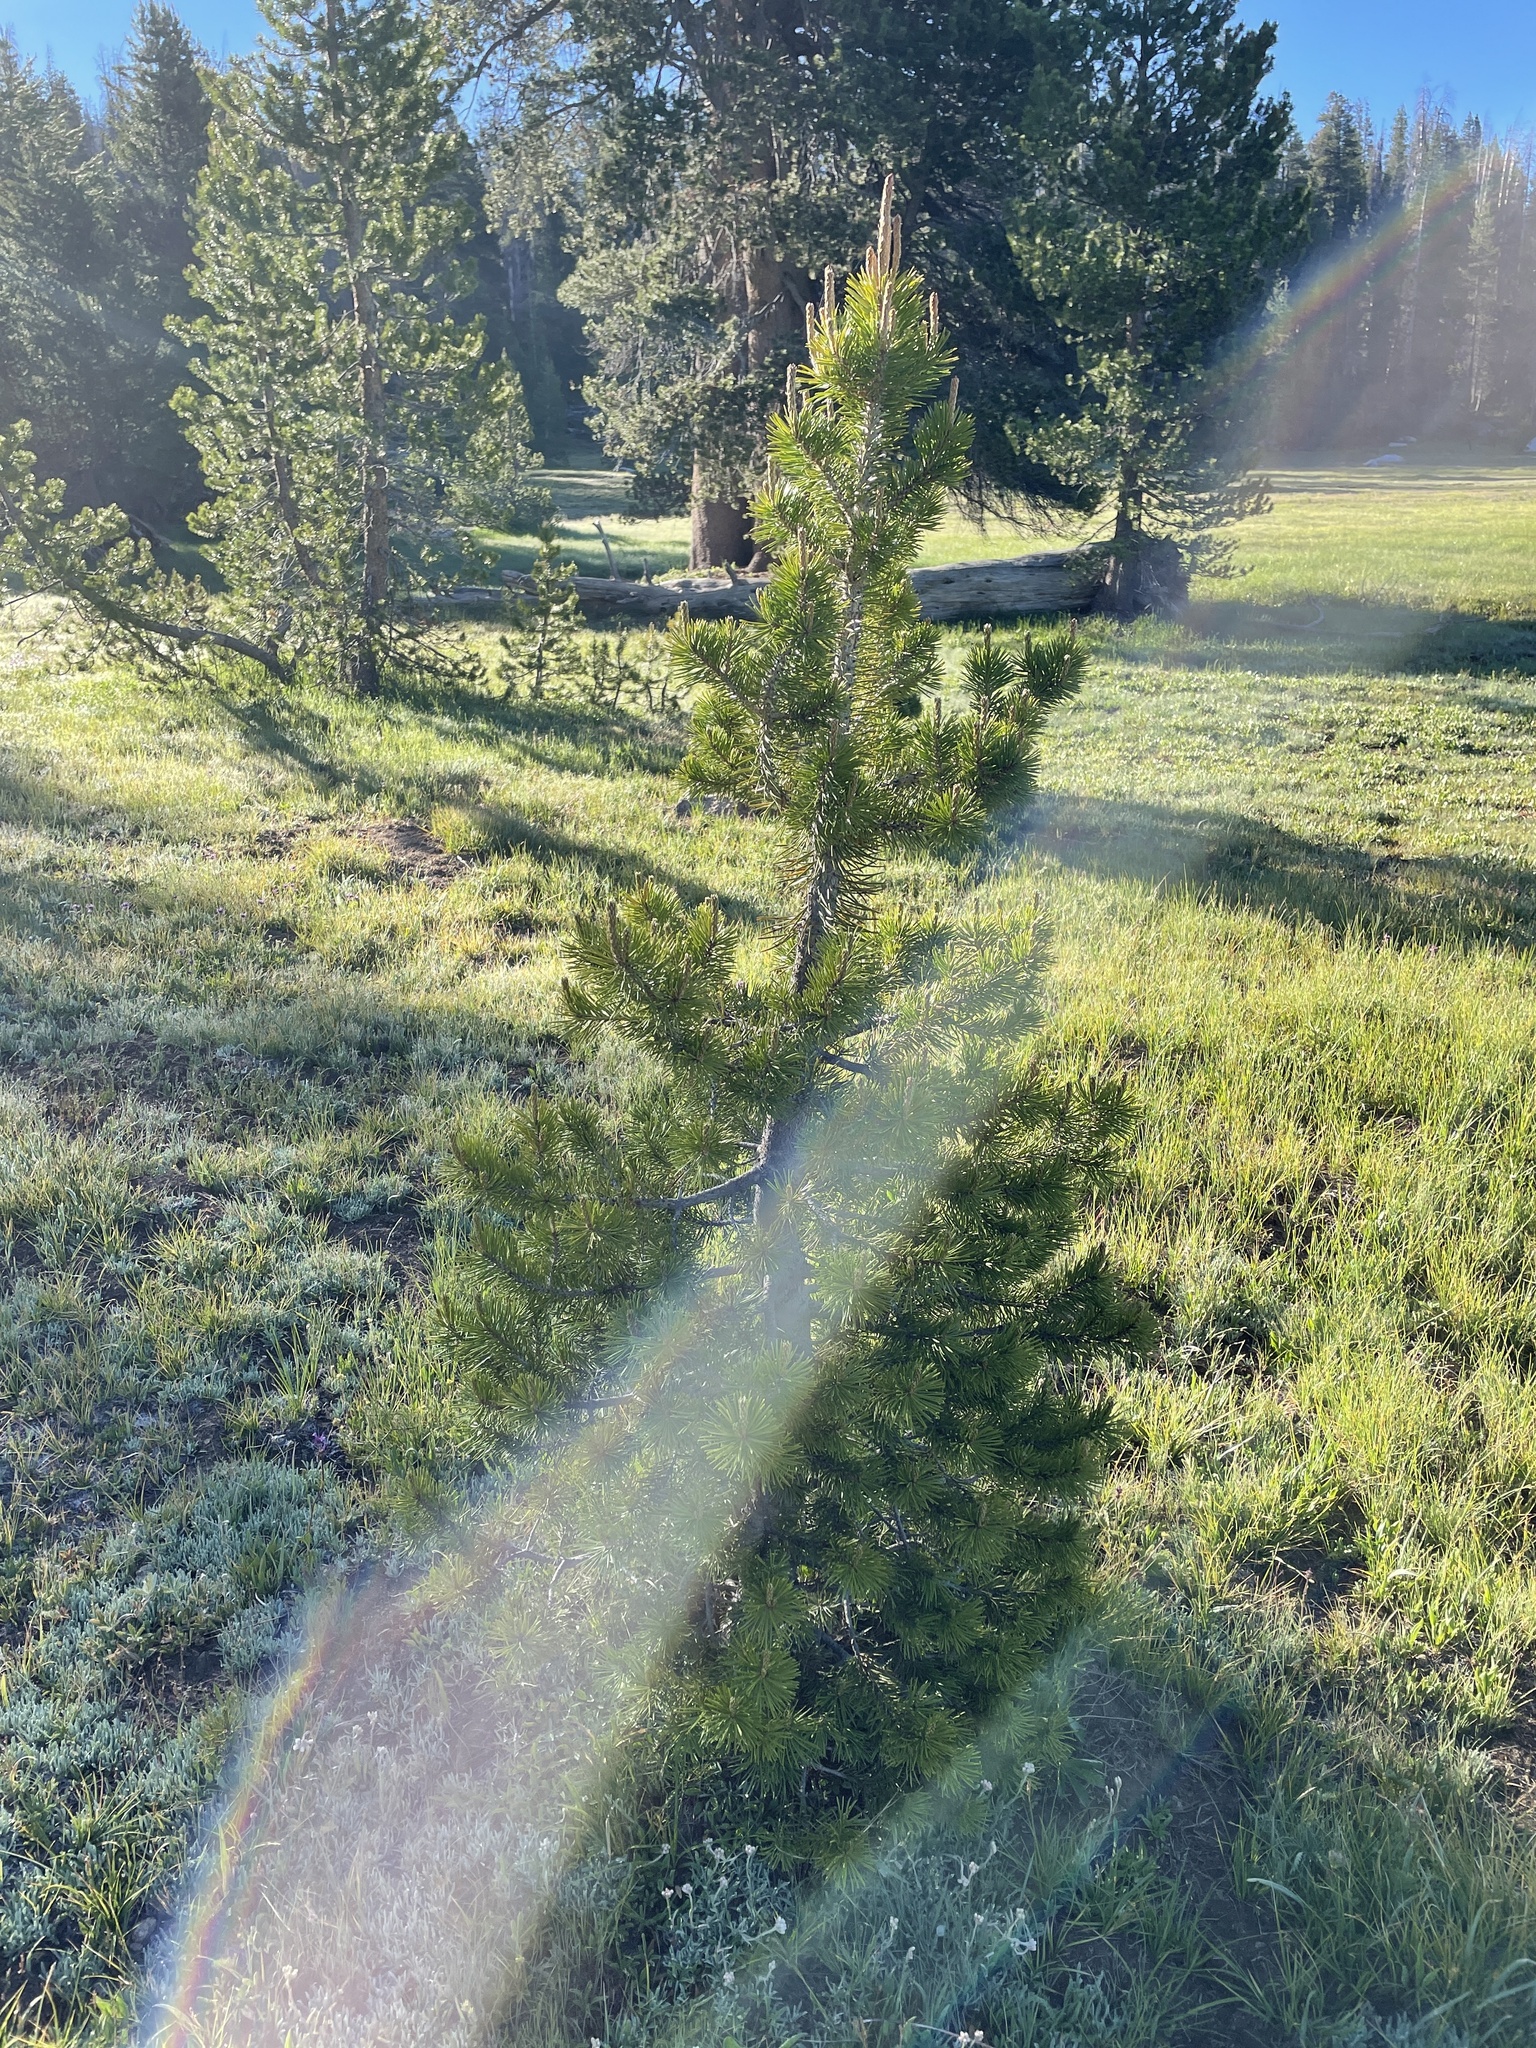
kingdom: Plantae
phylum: Tracheophyta
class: Pinopsida
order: Pinales
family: Pinaceae
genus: Pinus
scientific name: Pinus contorta
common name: Lodgepole pine
